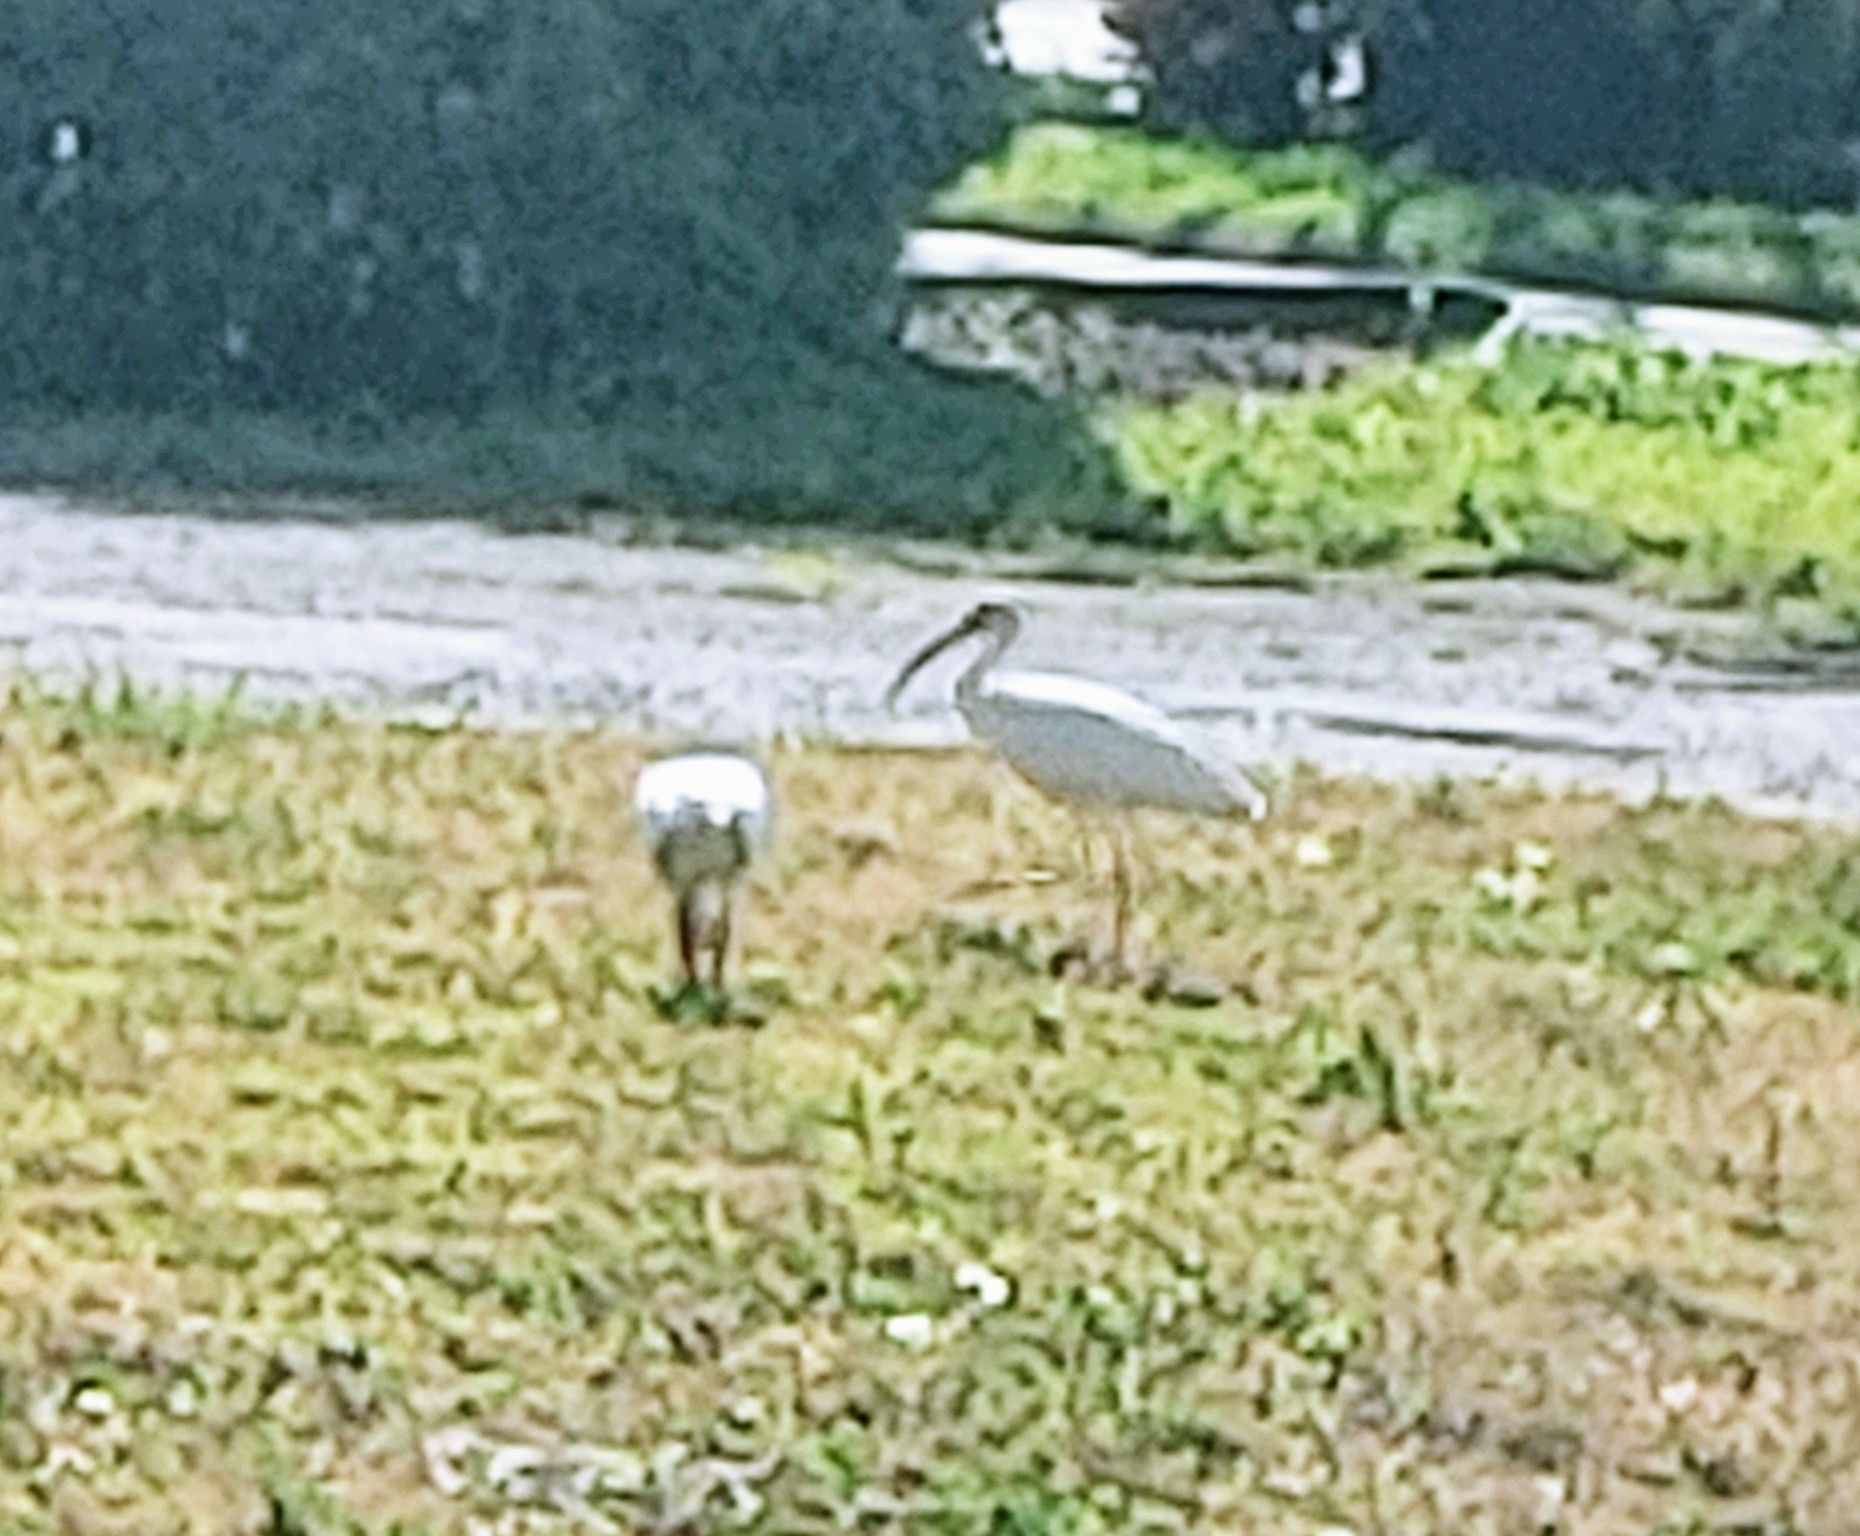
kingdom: Animalia
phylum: Chordata
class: Aves
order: Pelecaniformes
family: Threskiornithidae
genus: Eudocimus
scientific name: Eudocimus albus
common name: White ibis
